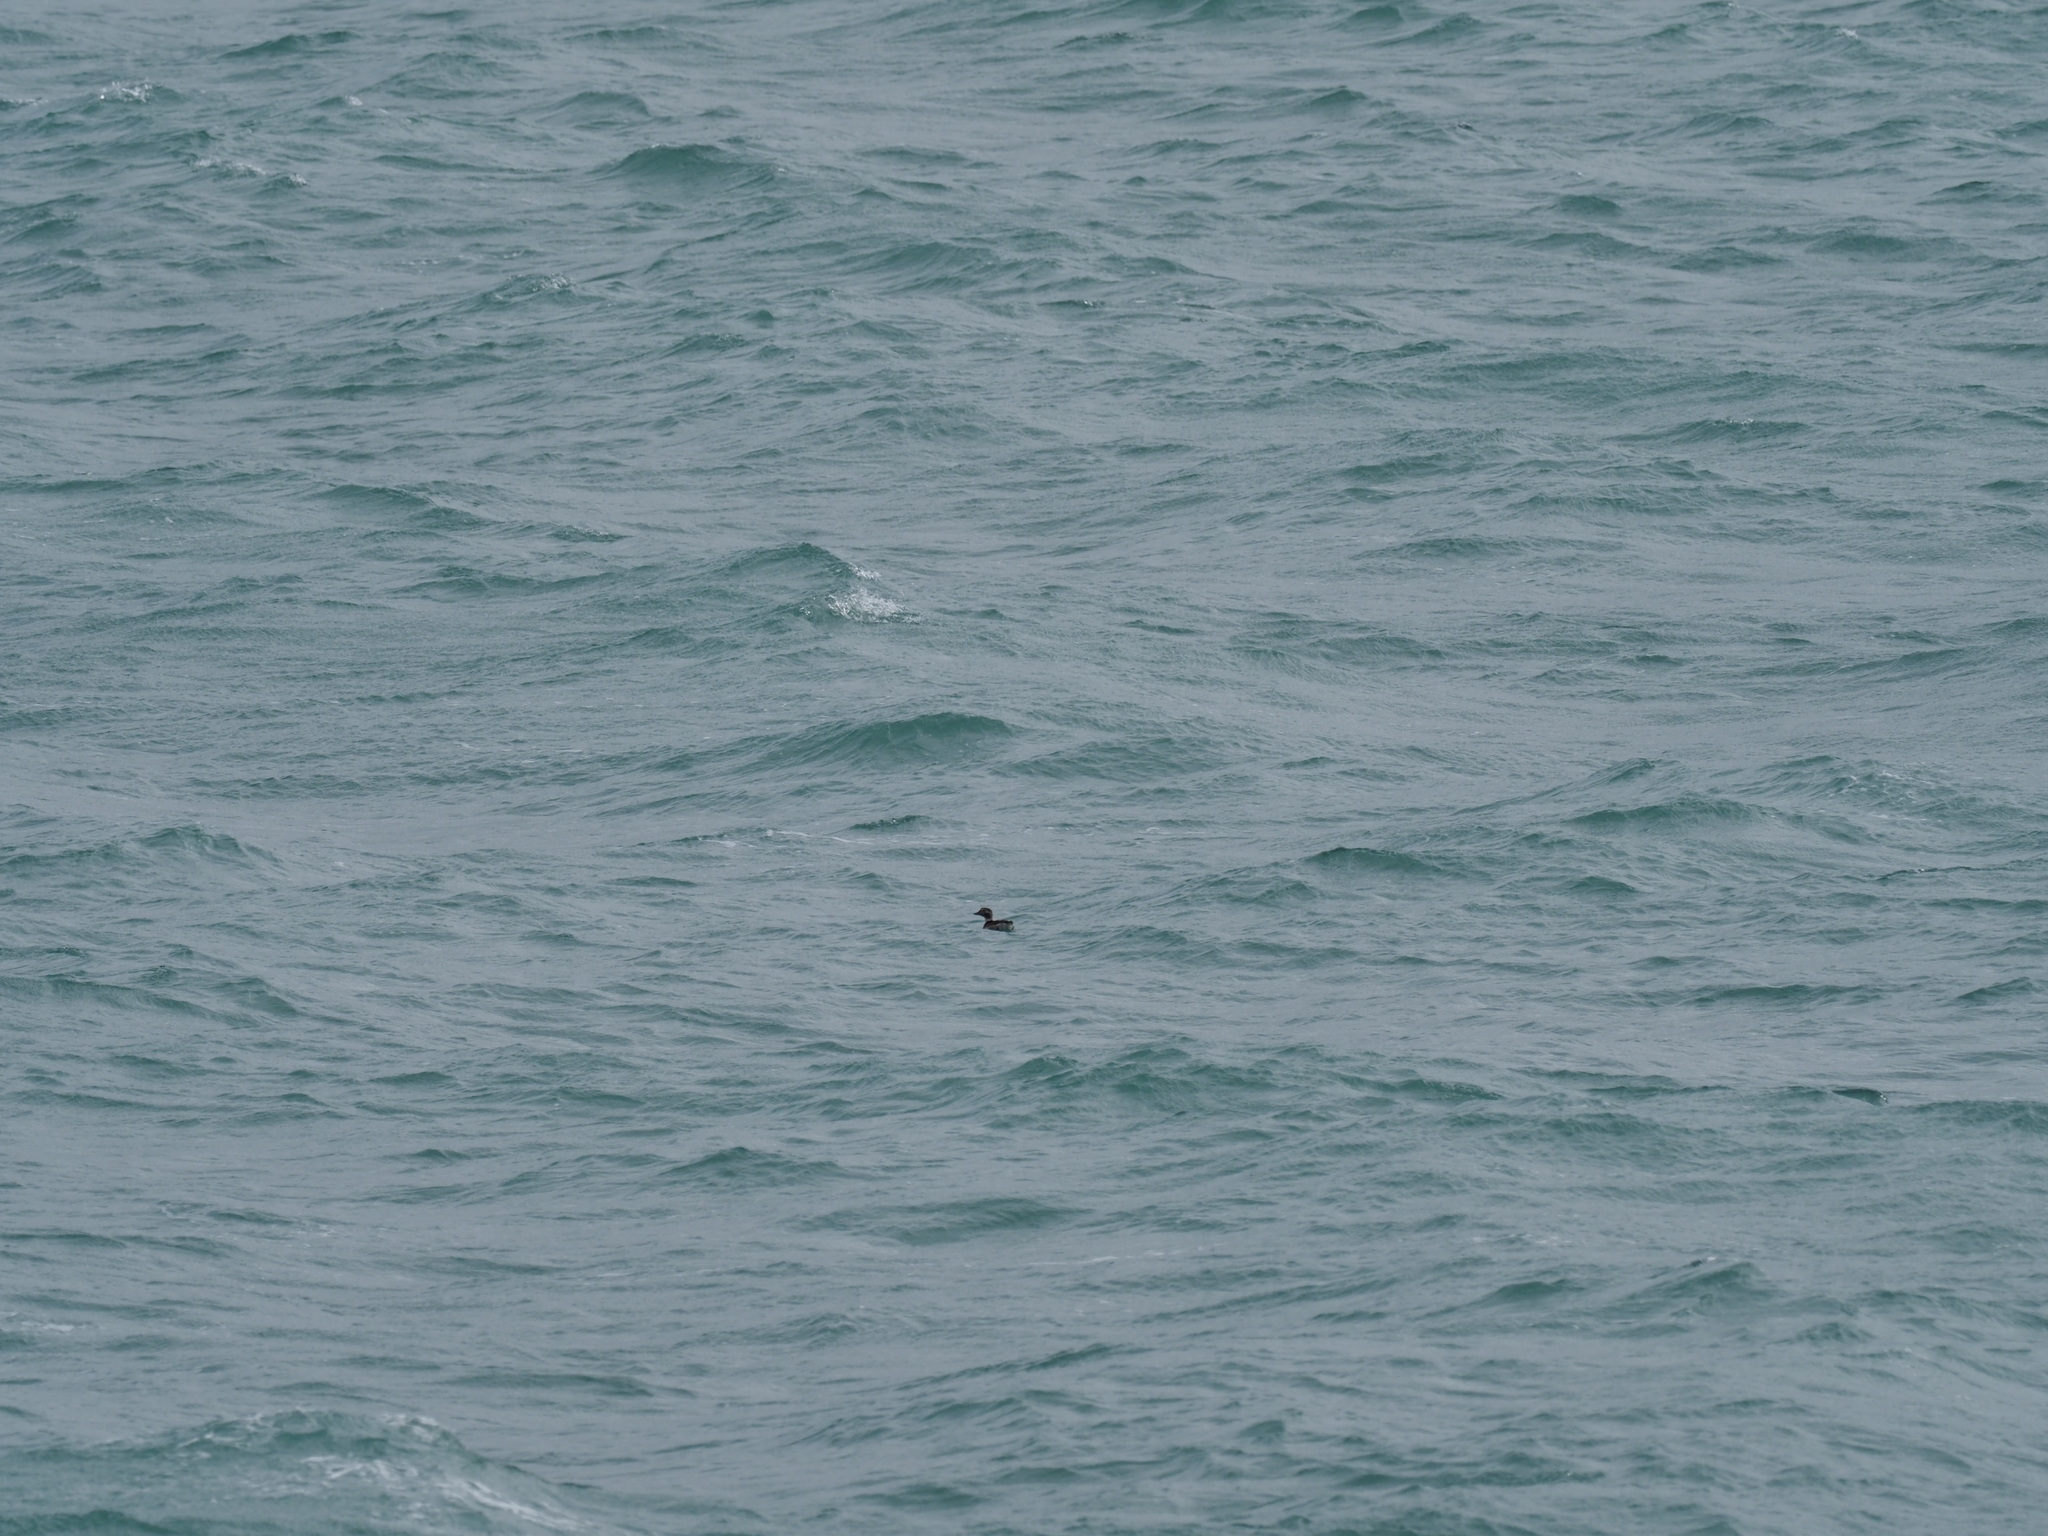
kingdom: Animalia
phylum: Chordata
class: Aves
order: Anseriformes
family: Anatidae
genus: Clangula
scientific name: Clangula hyemalis
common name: Long-tailed duck
